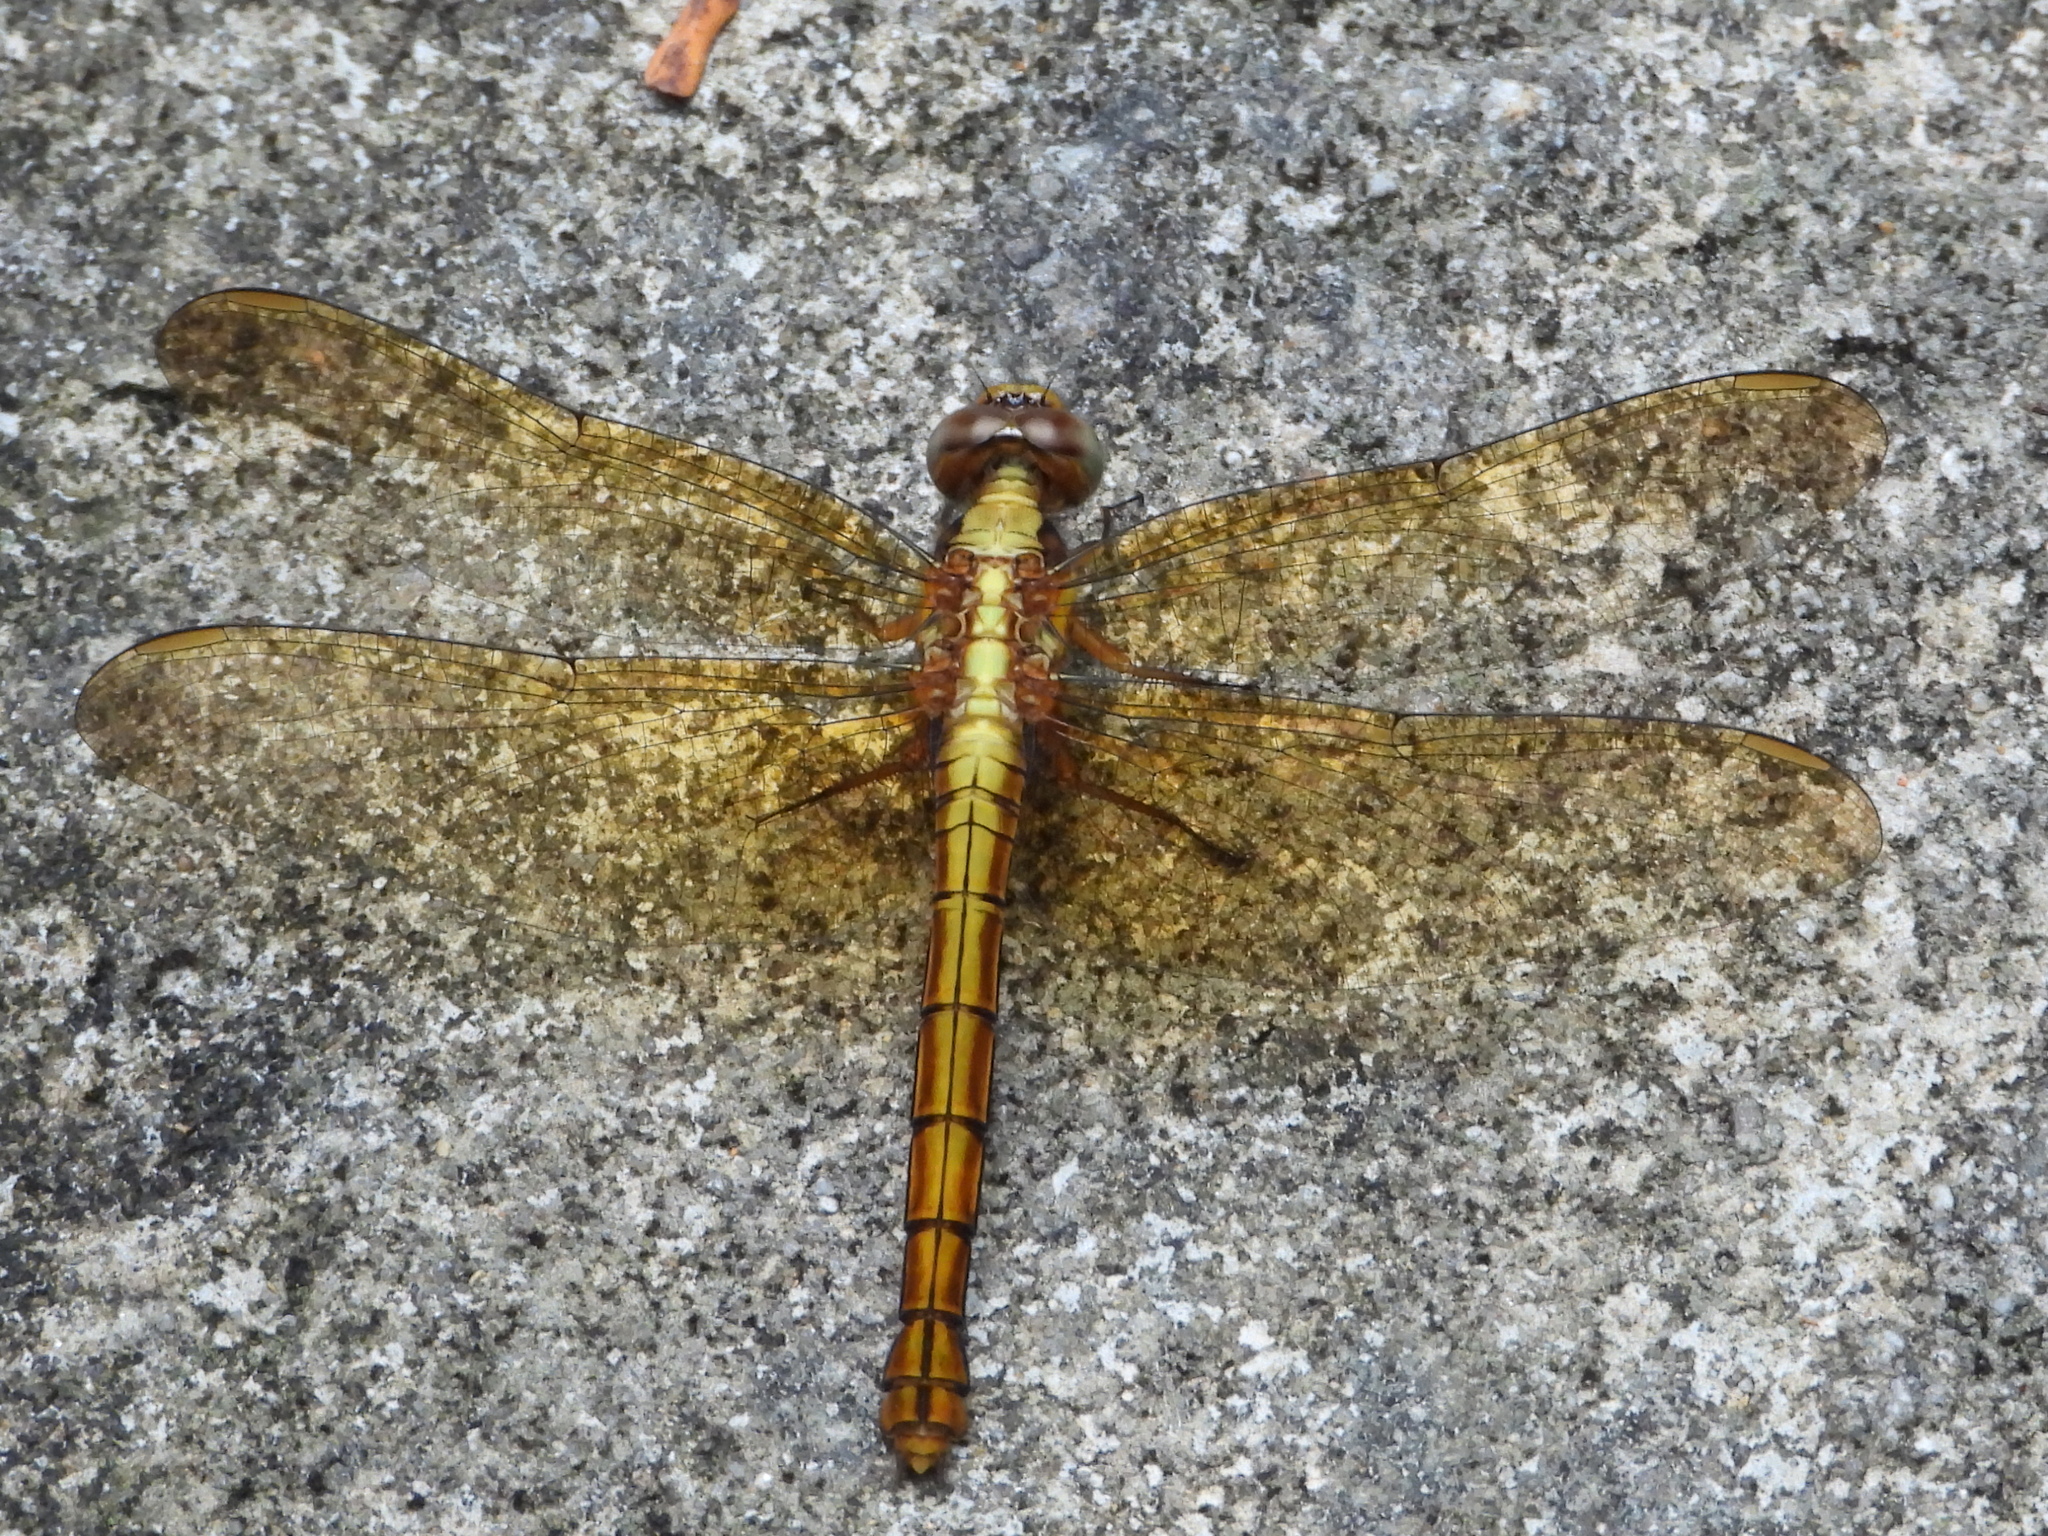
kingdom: Animalia
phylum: Arthropoda
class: Insecta
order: Odonata
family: Libellulidae
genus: Orthetrum
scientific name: Orthetrum glaucum
